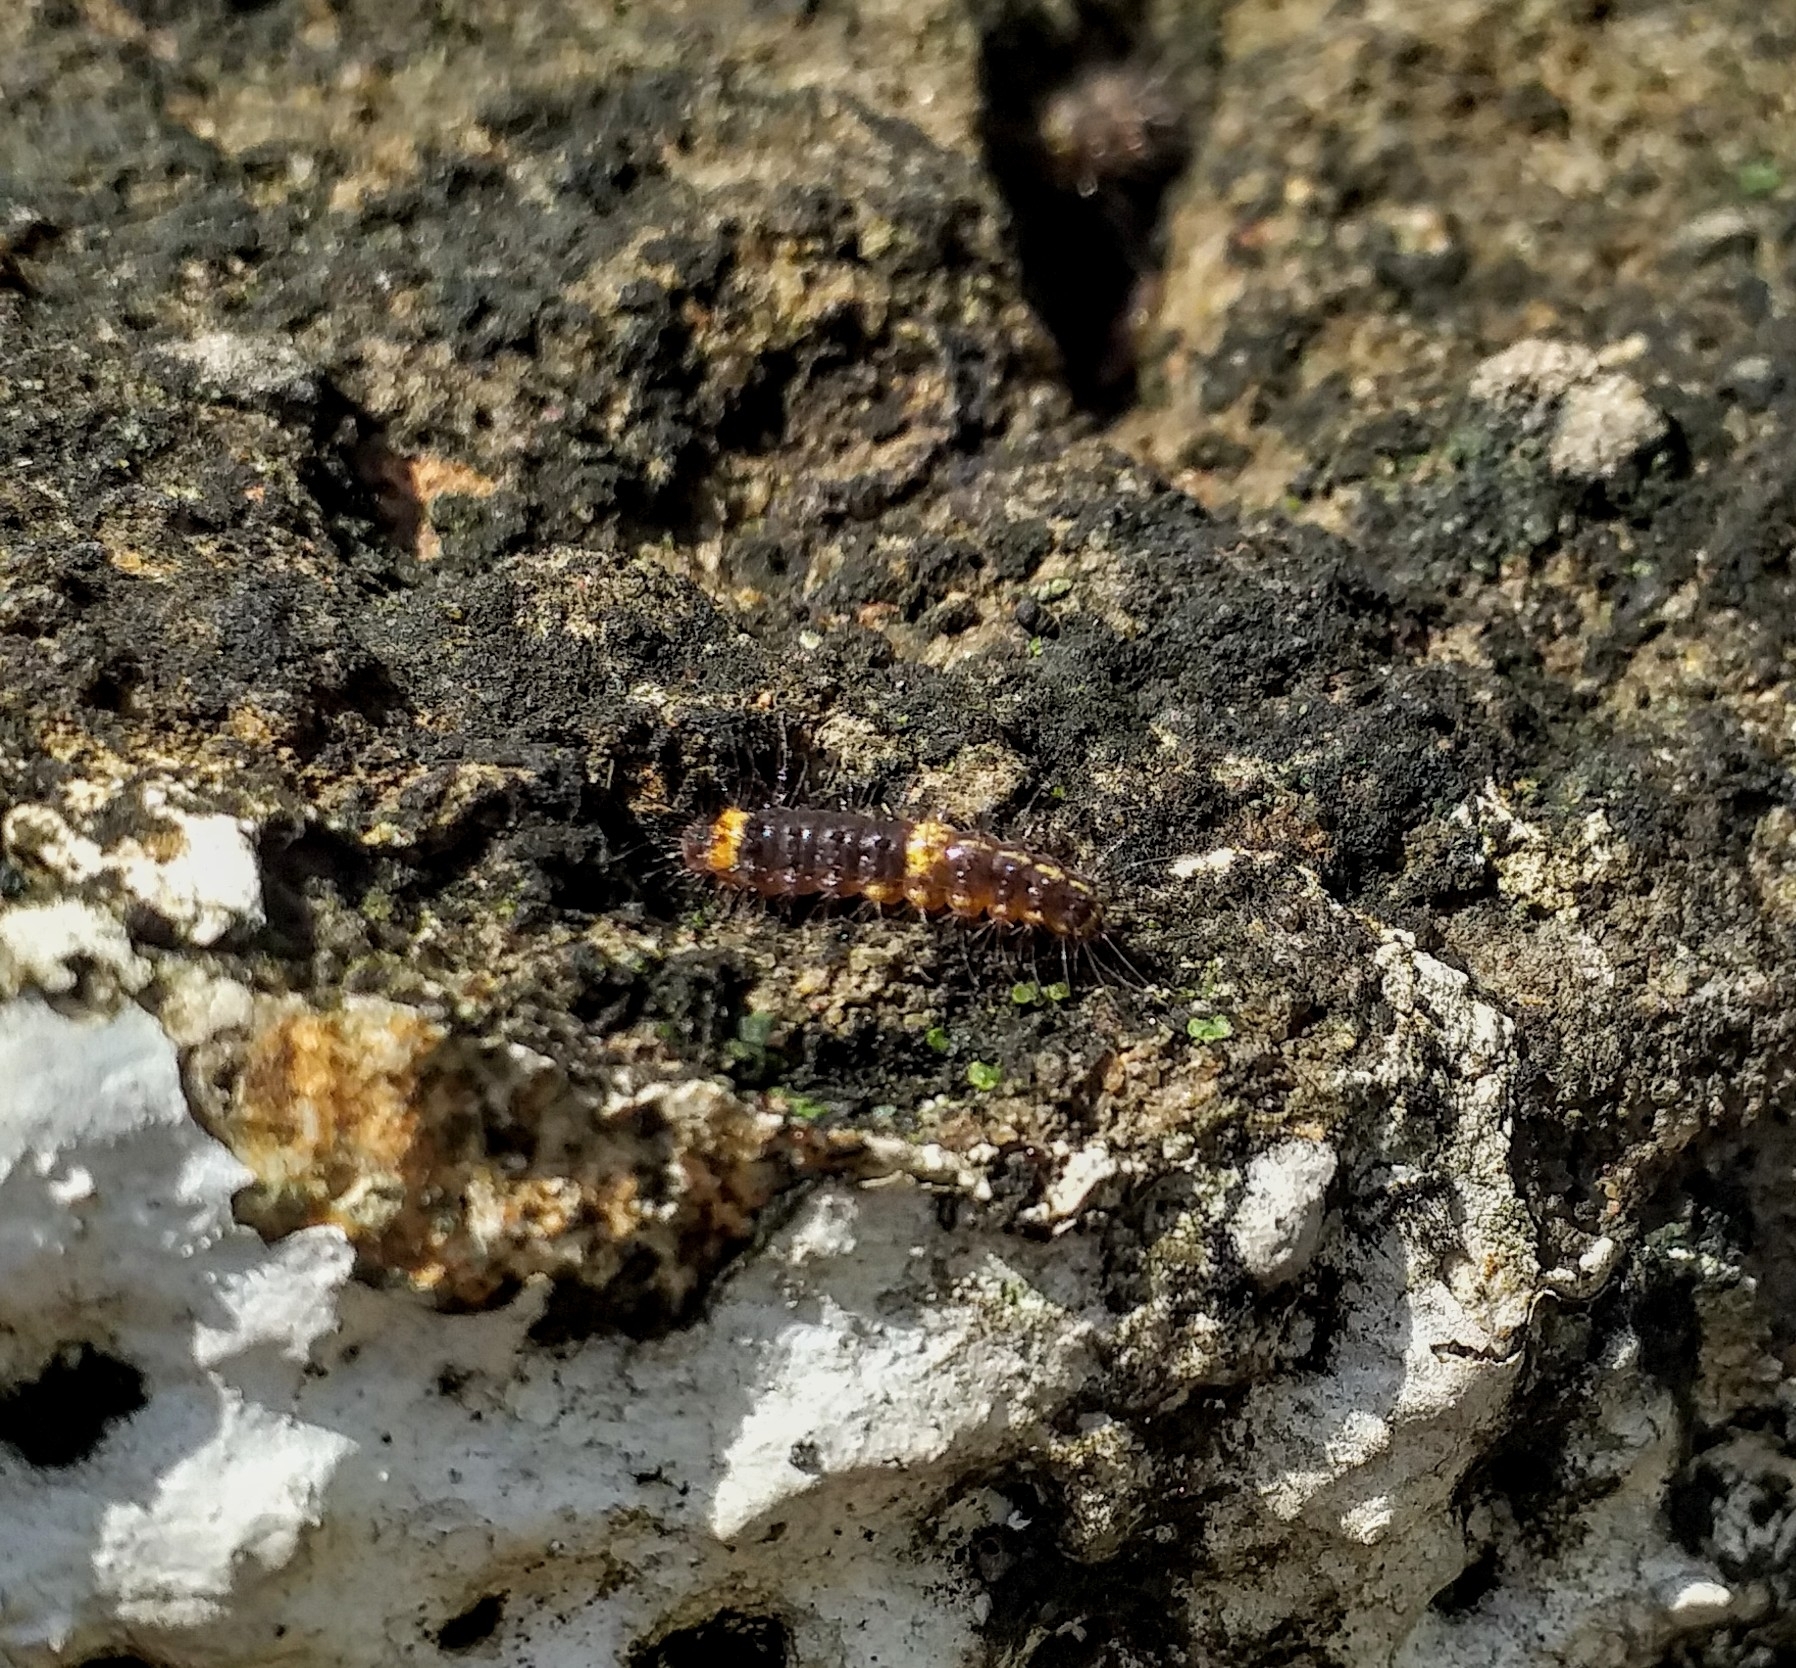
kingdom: Animalia
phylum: Arthropoda
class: Insecta
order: Lepidoptera
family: Erebidae
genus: Nepita
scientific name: Nepita conferta
